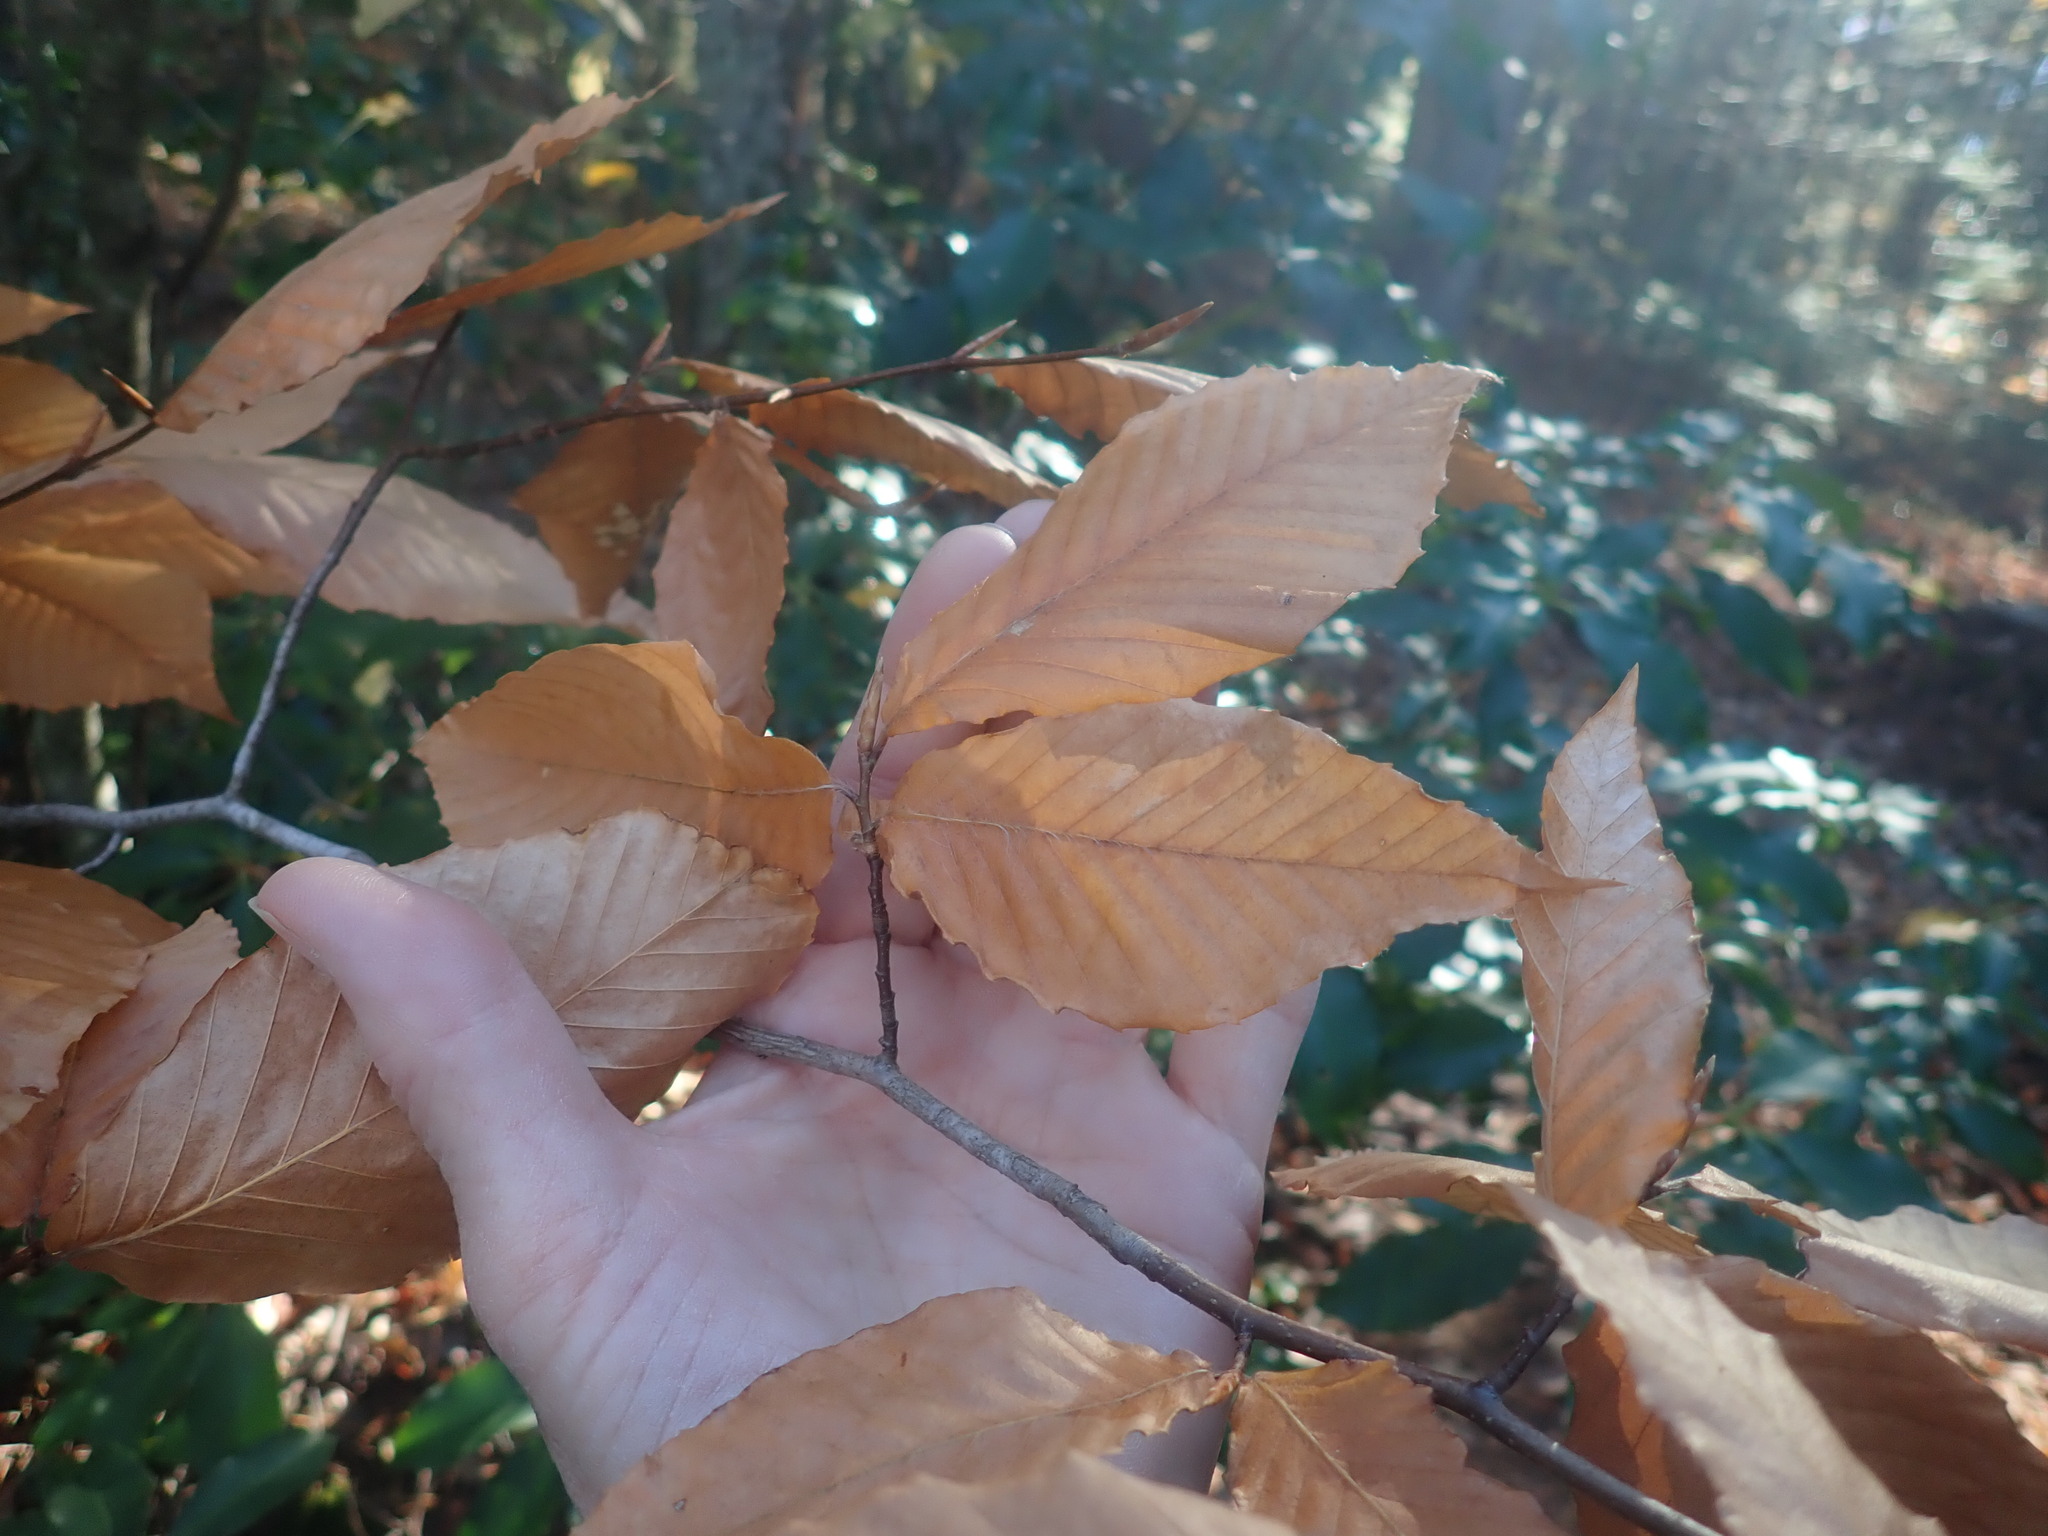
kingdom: Plantae
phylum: Tracheophyta
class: Magnoliopsida
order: Fagales
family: Fagaceae
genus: Fagus
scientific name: Fagus grandifolia
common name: American beech
